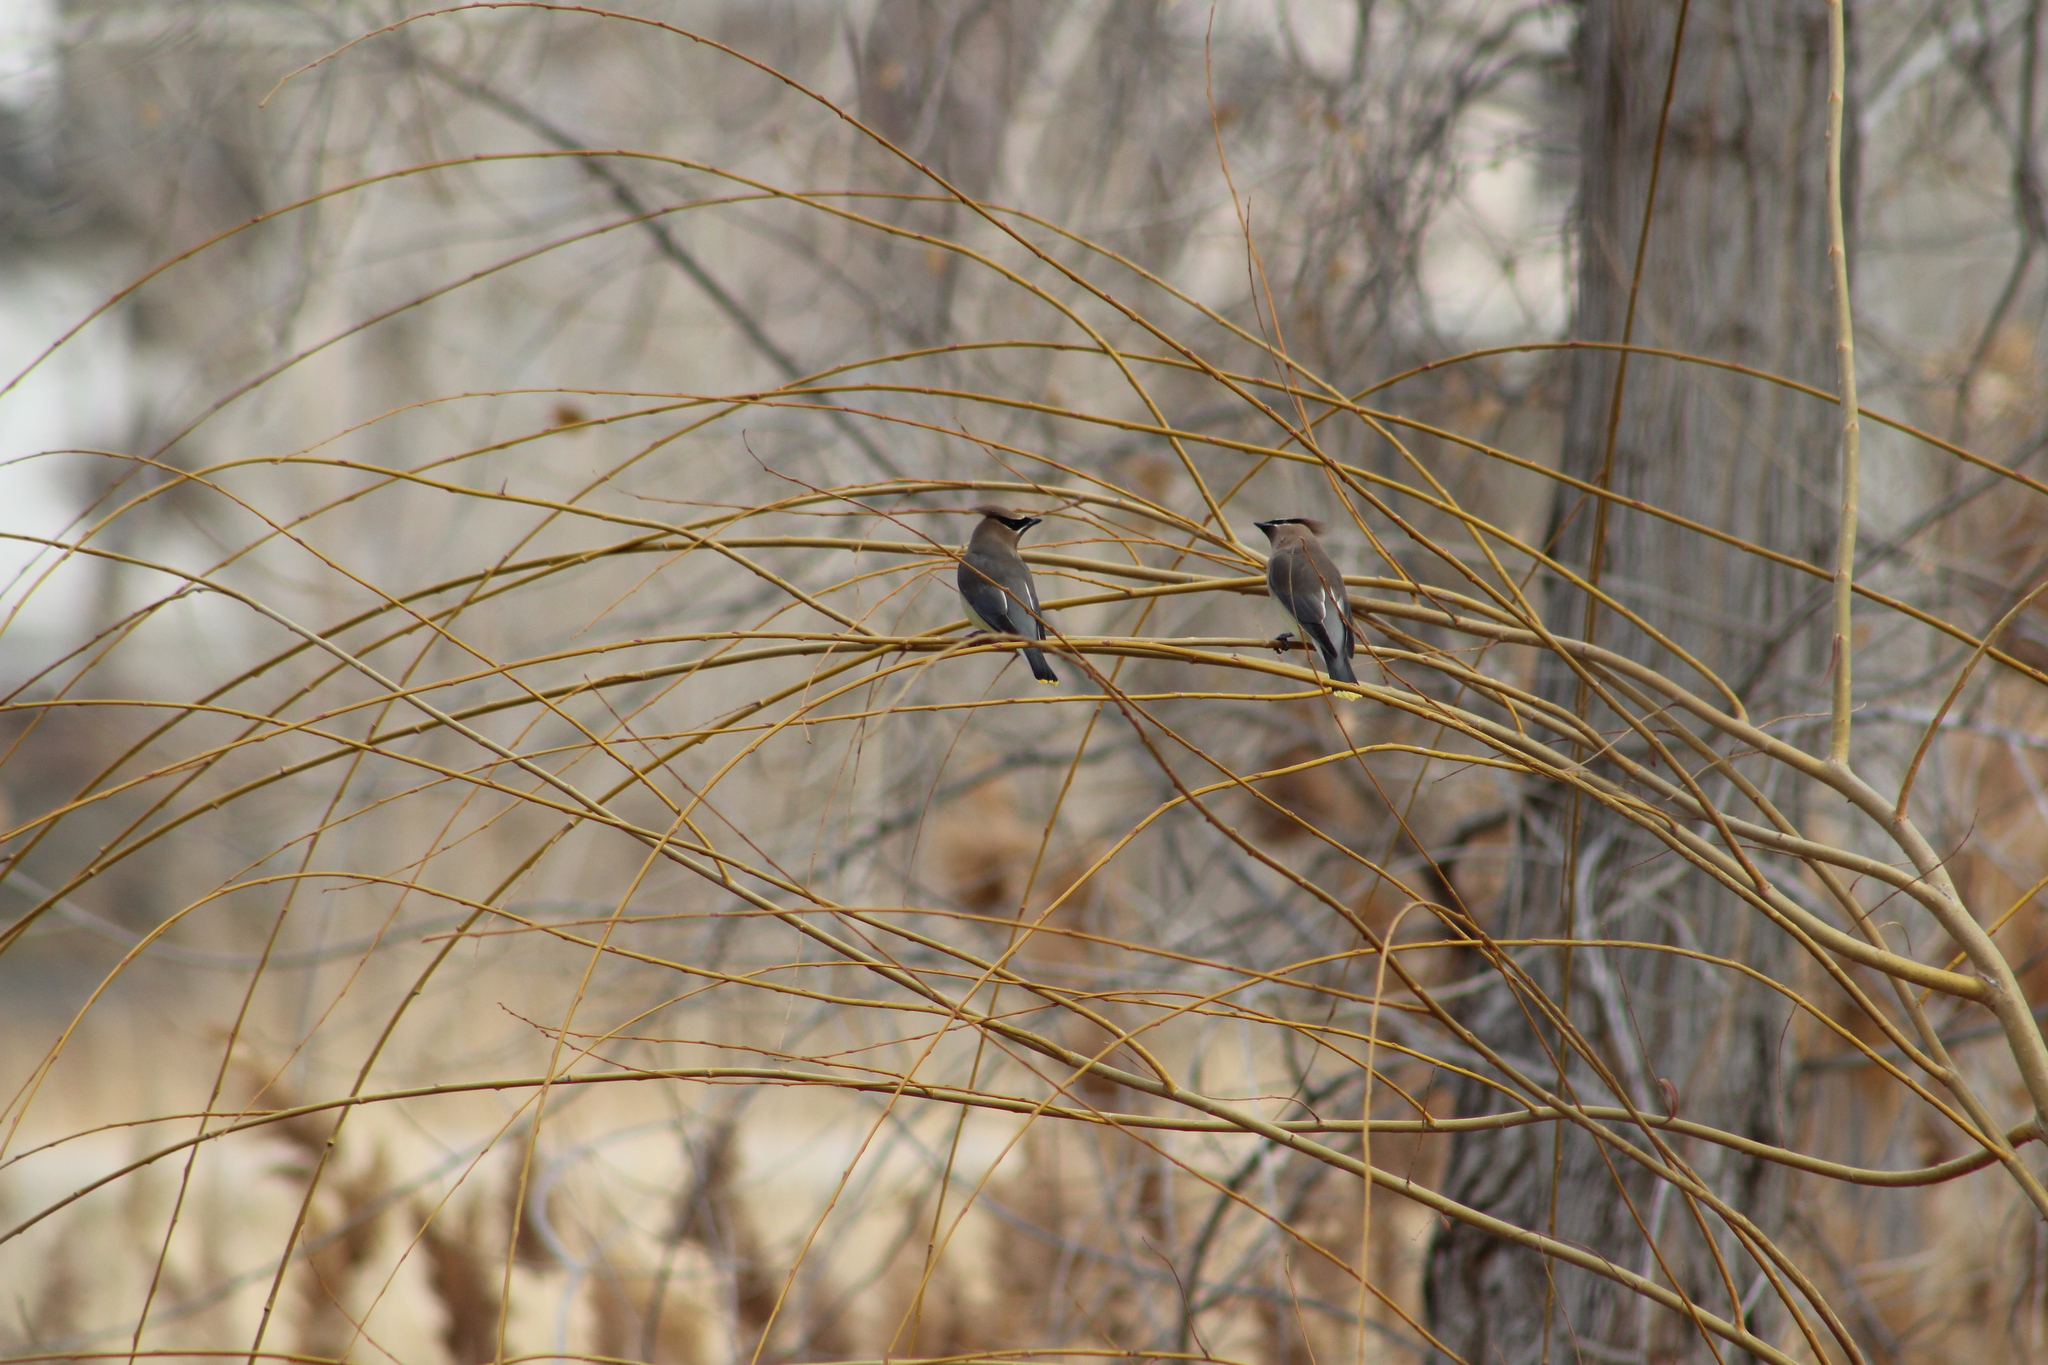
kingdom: Animalia
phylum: Chordata
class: Aves
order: Passeriformes
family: Bombycillidae
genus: Bombycilla
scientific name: Bombycilla cedrorum
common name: Cedar waxwing
